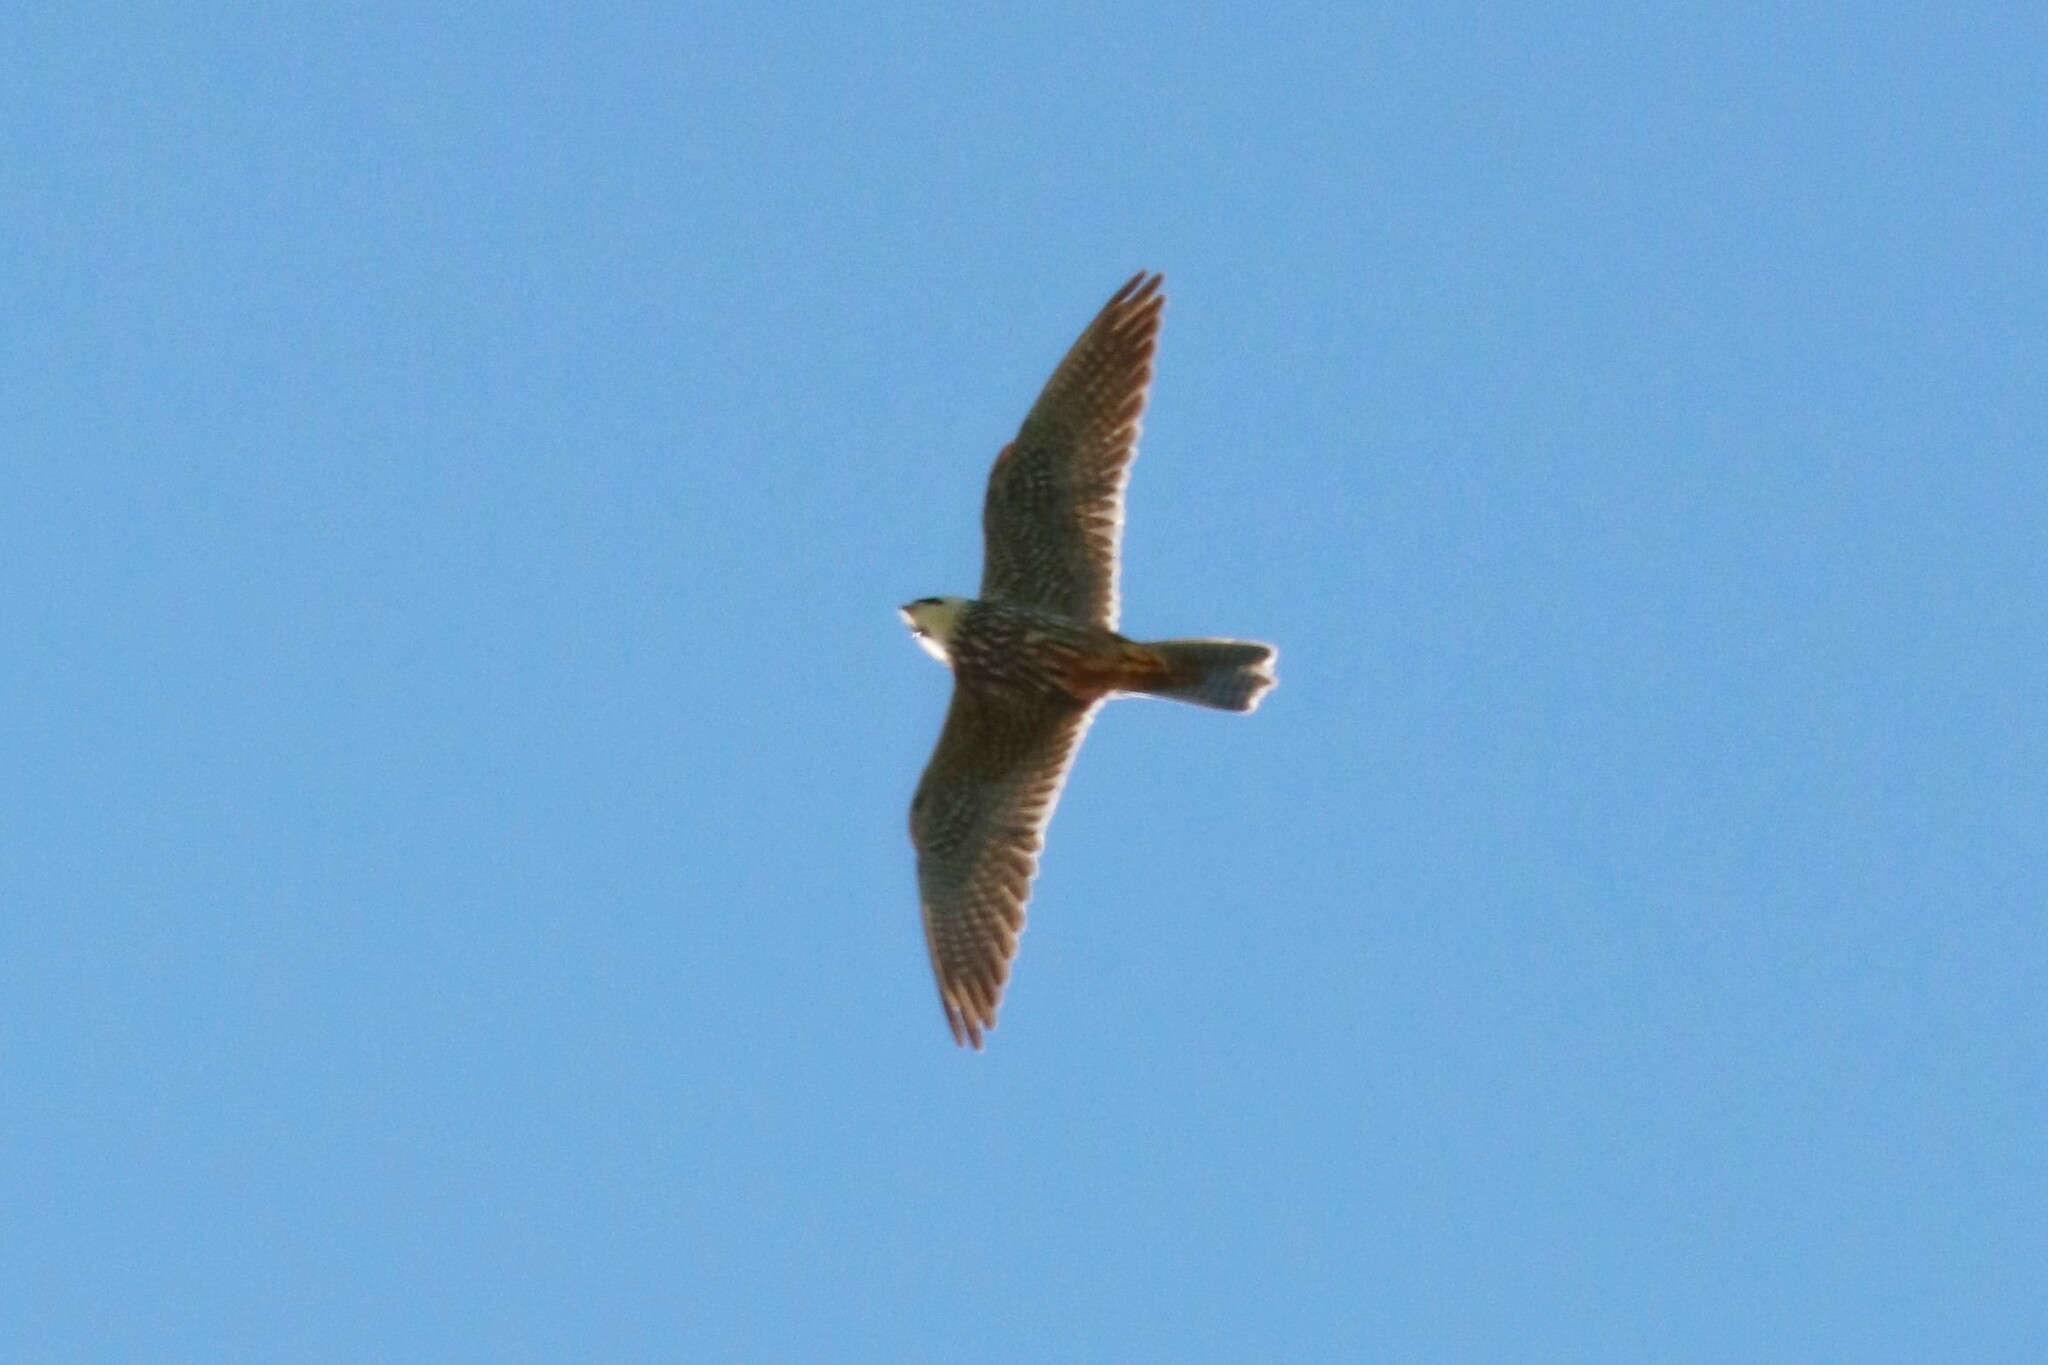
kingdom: Animalia
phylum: Chordata
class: Aves
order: Falconiformes
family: Falconidae
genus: Falco
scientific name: Falco subbuteo
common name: Eurasian hobby
